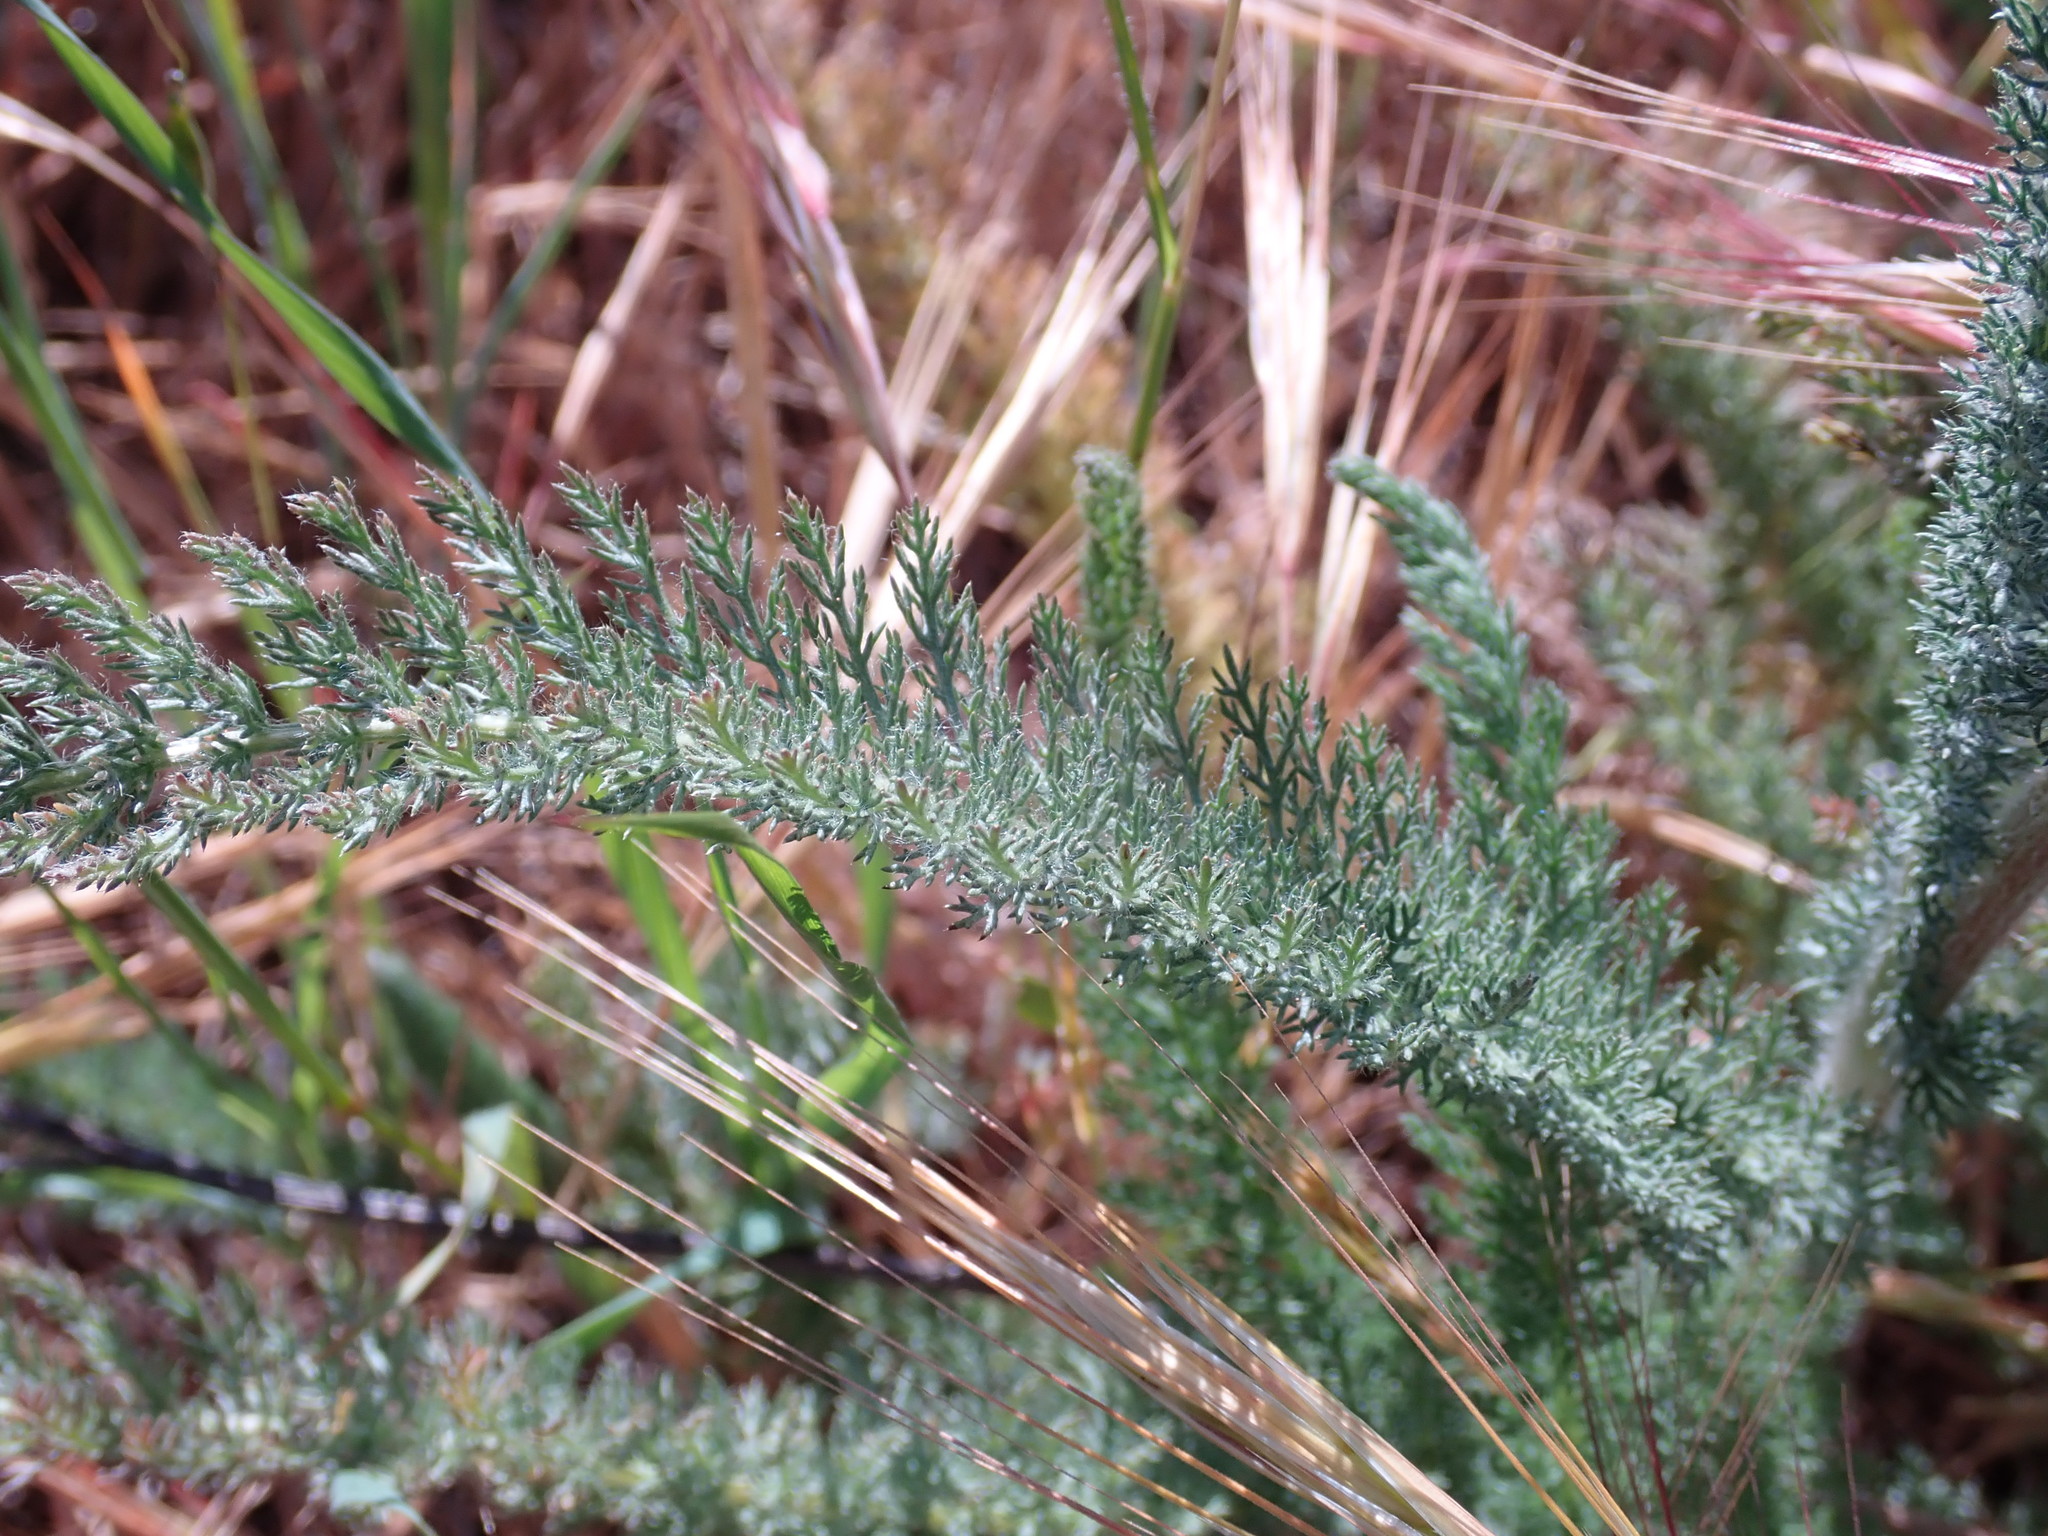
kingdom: Plantae
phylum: Tracheophyta
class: Magnoliopsida
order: Asterales
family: Asteraceae
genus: Achillea
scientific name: Achillea millefolium
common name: Yarrow
